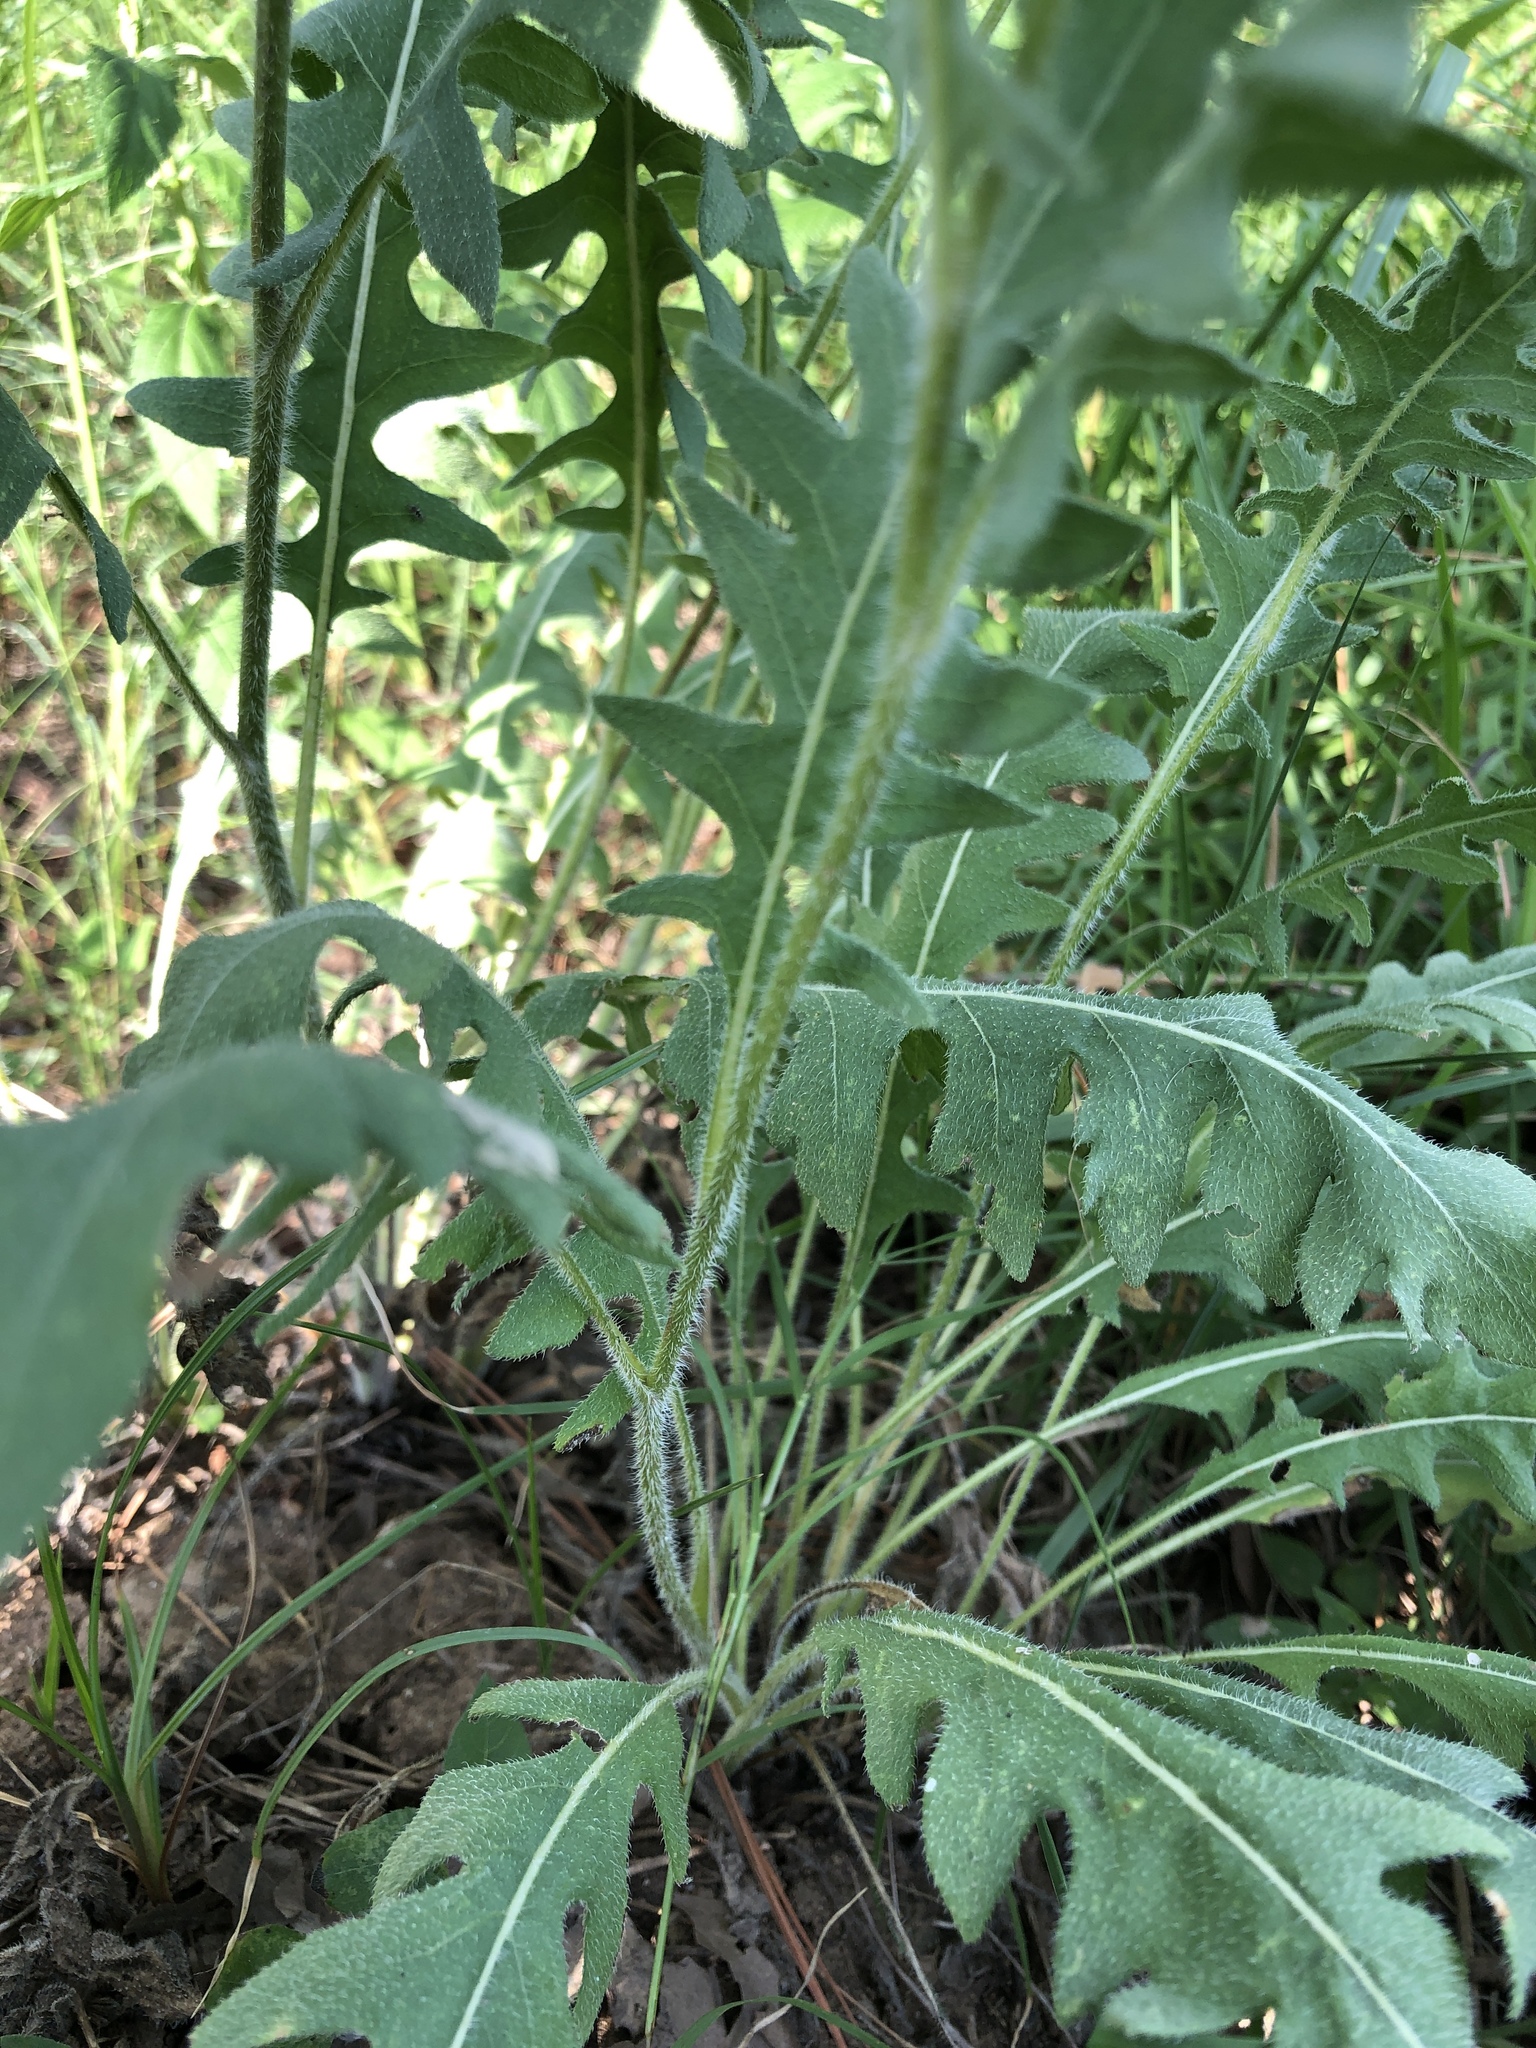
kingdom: Plantae
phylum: Tracheophyta
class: Magnoliopsida
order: Asterales
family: Asteraceae
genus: Engelmannia
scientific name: Engelmannia peristenia
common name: Engelmann's daisy
